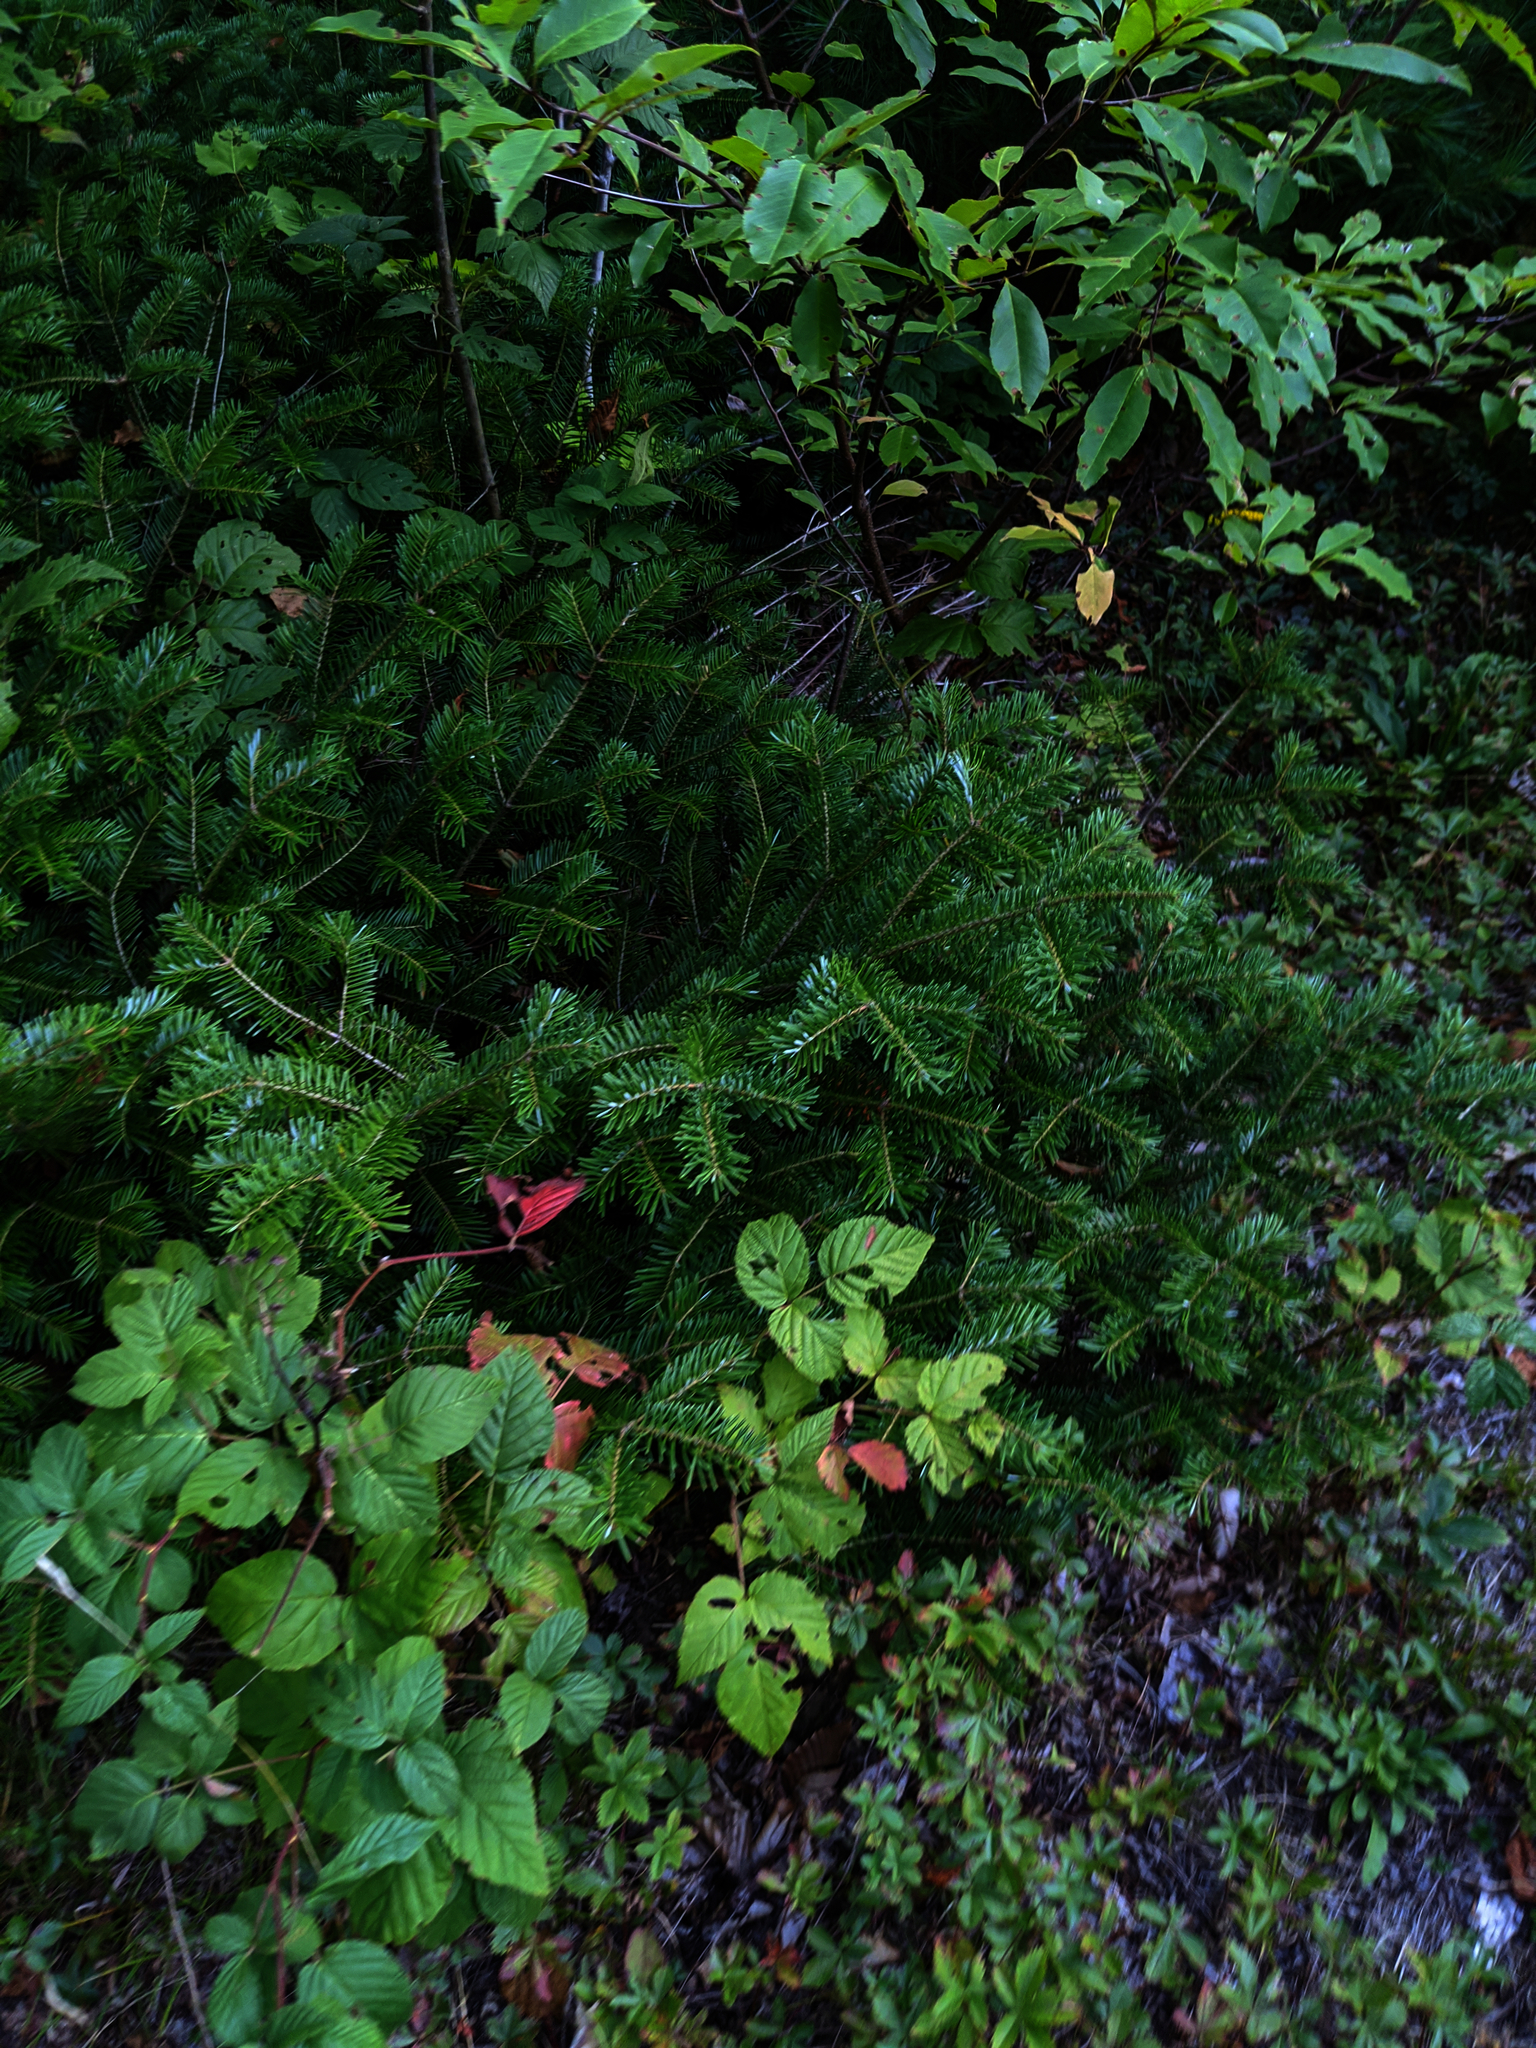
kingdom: Plantae
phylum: Tracheophyta
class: Pinopsida
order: Pinales
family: Pinaceae
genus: Abies
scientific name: Abies balsamea
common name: Balsam fir
